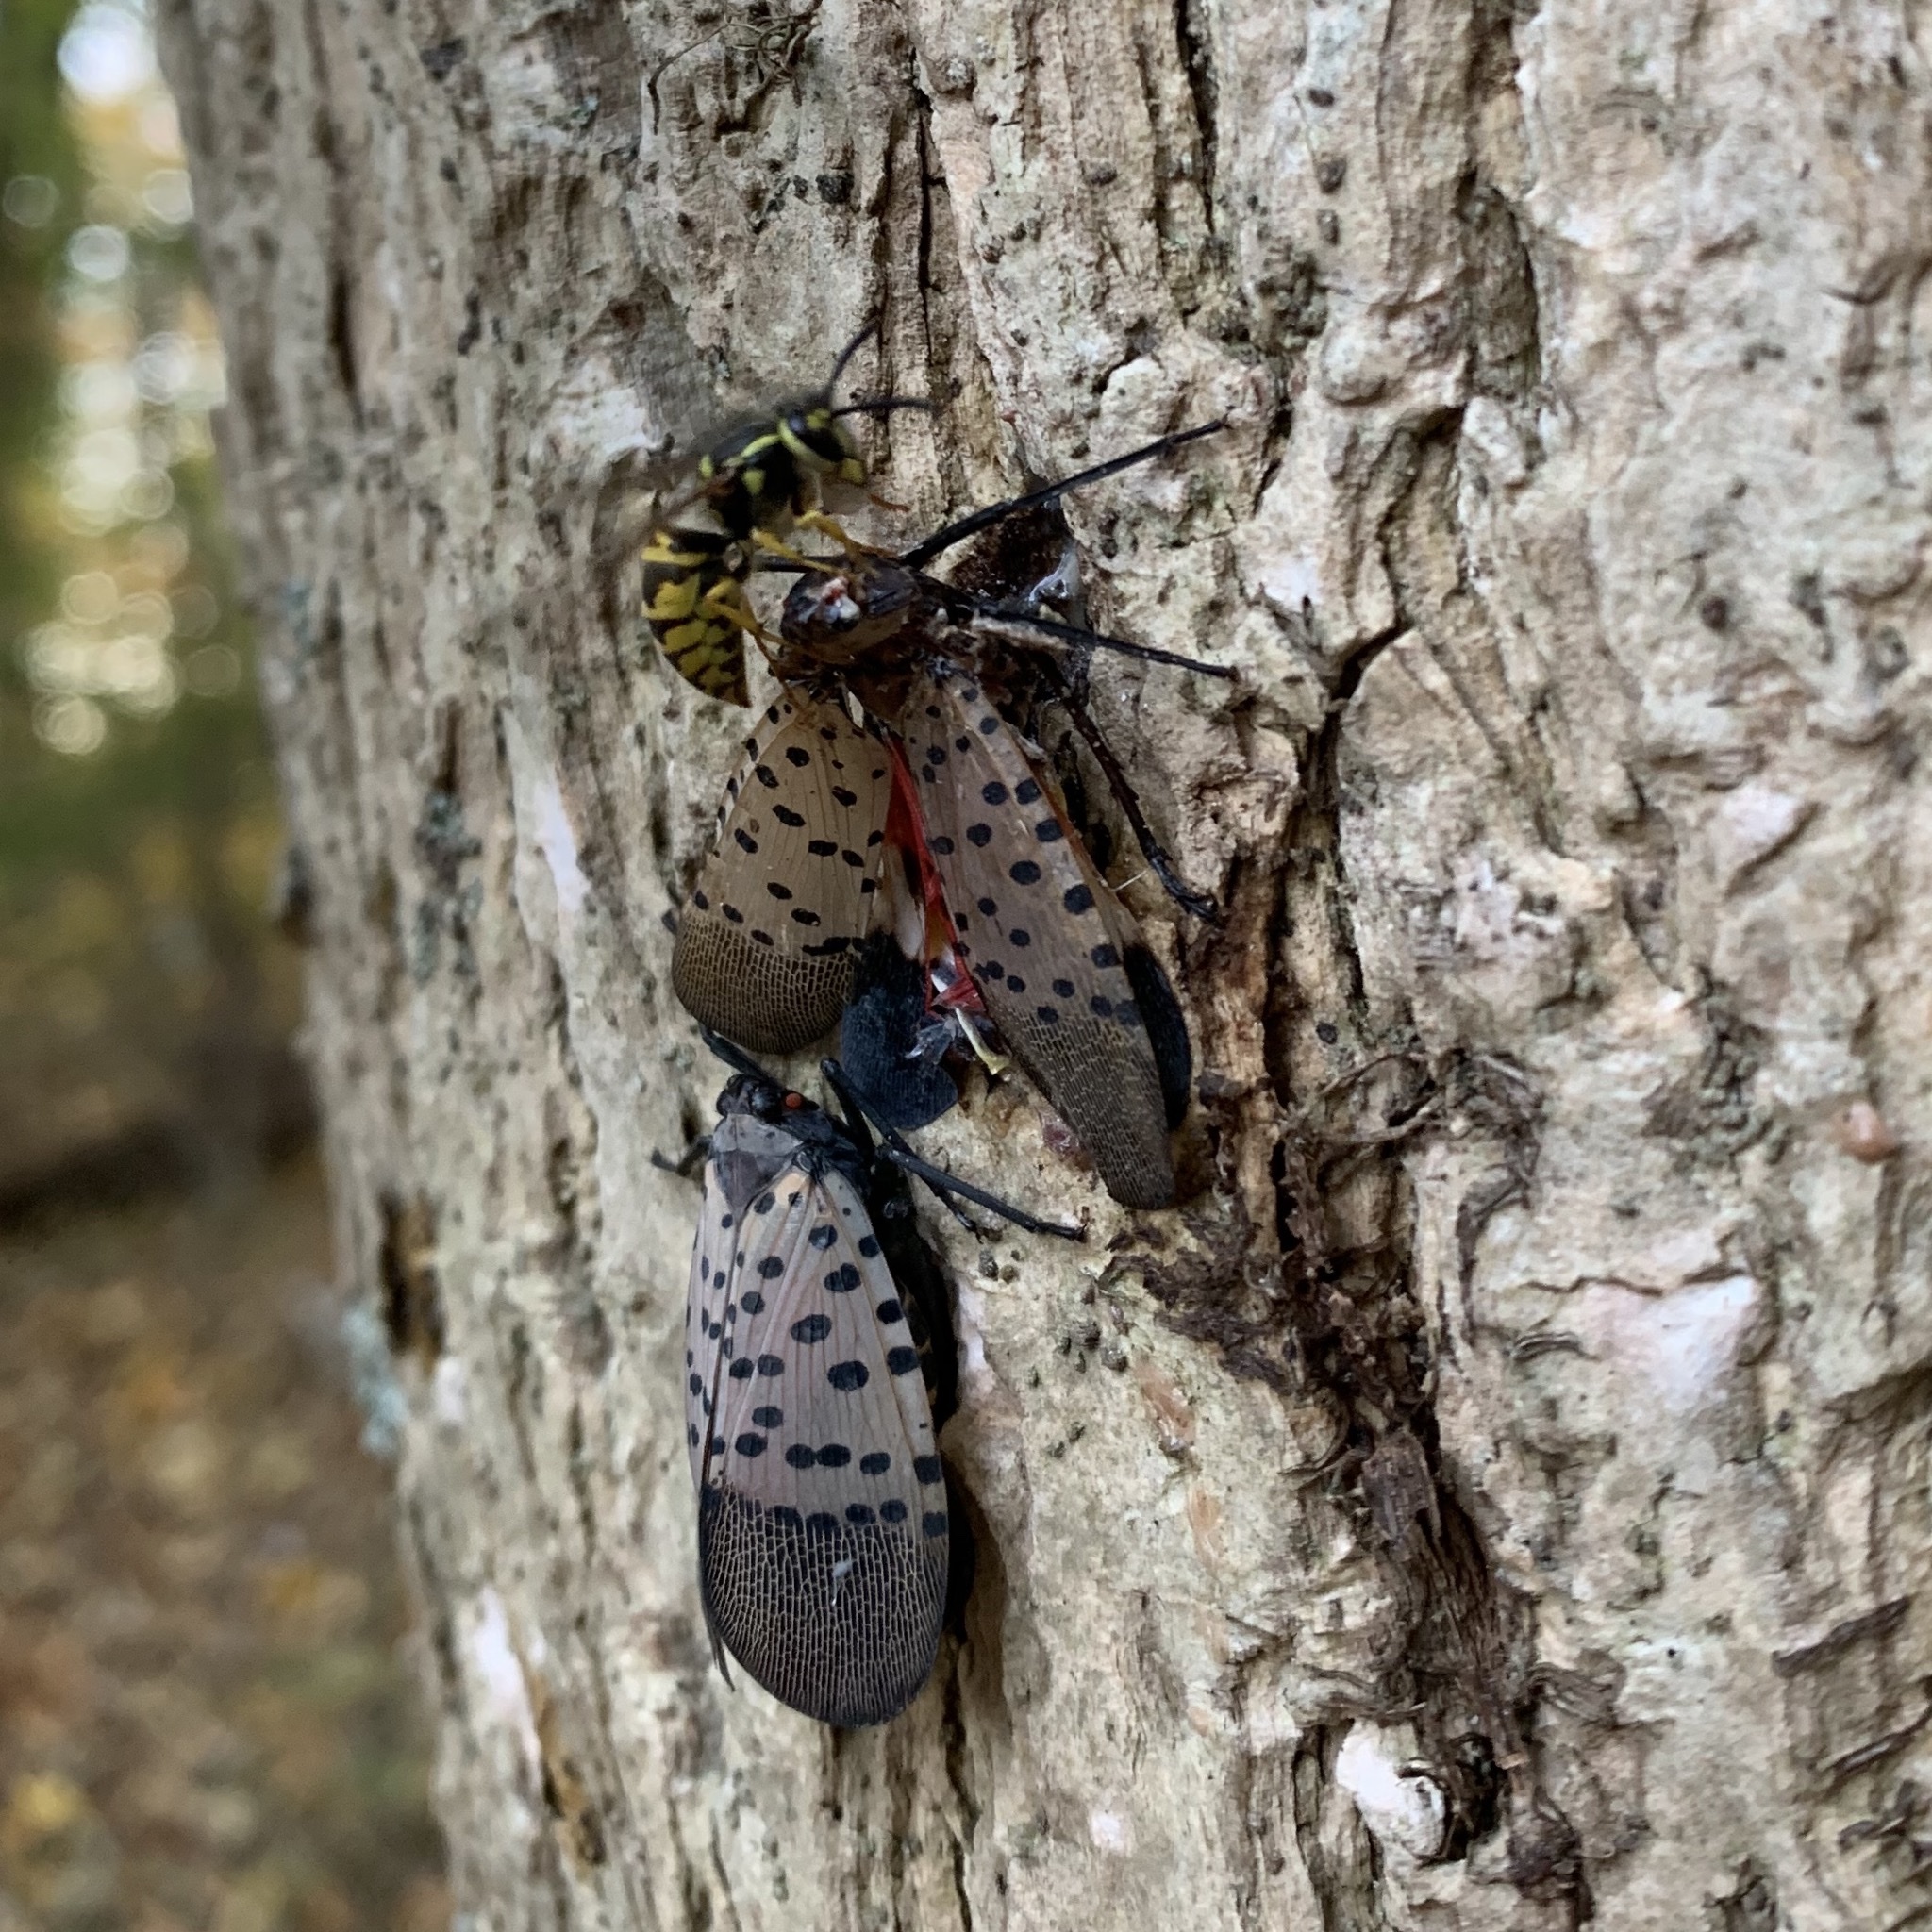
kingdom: Animalia
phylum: Arthropoda
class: Insecta
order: Hymenoptera
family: Vespidae
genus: Vespula
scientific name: Vespula maculifrons
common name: Eastern yellowjacket
